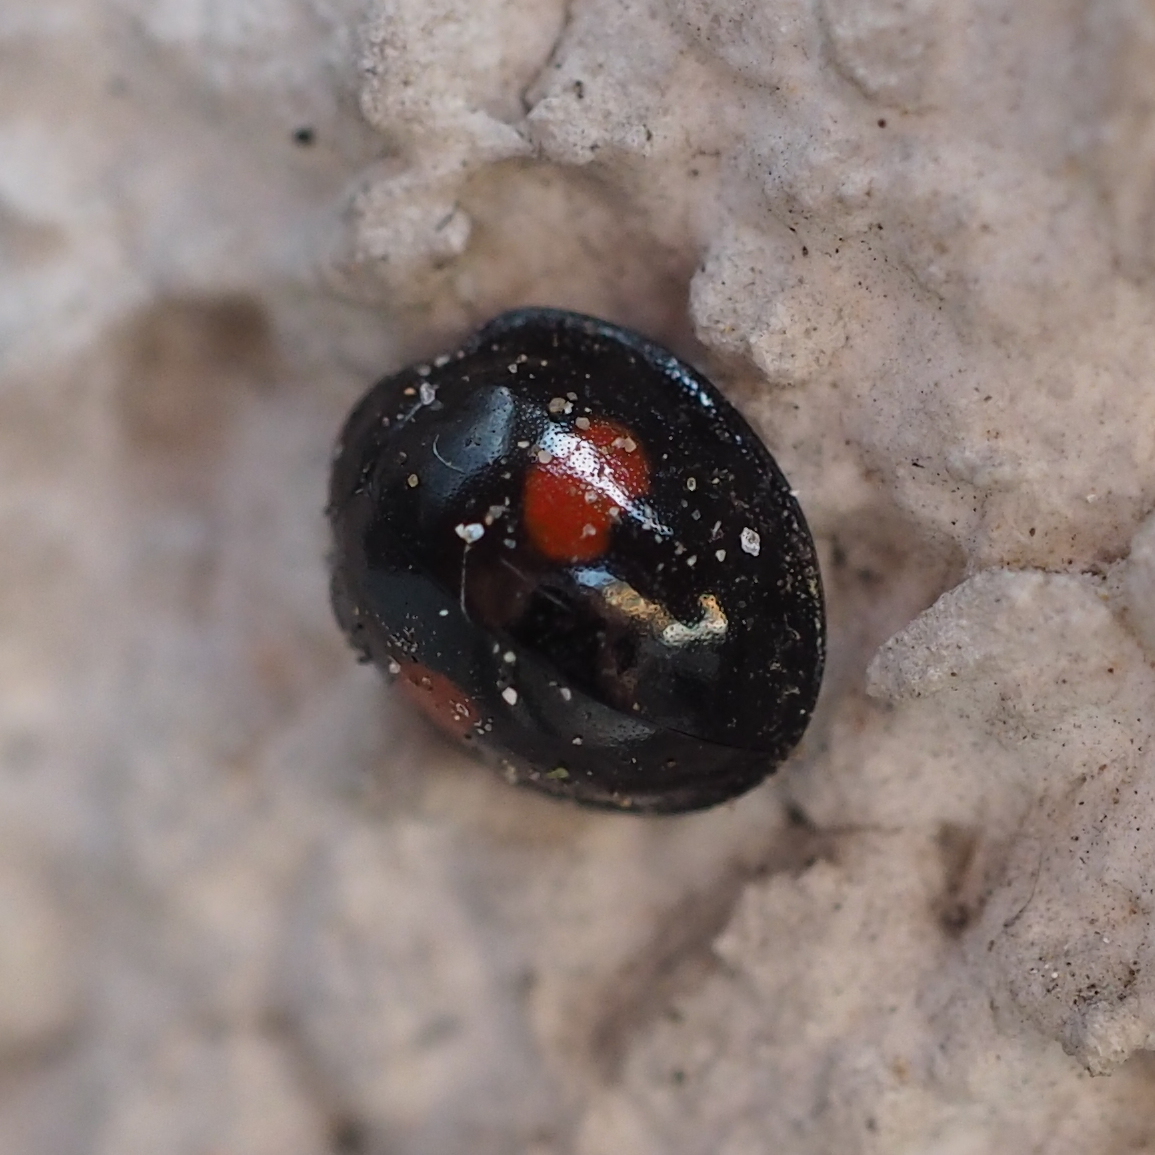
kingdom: Animalia
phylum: Arthropoda
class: Insecta
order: Coleoptera
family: Coccinellidae
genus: Chilocorus
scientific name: Chilocorus renipustulatus
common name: Kidney-spot ladybird
